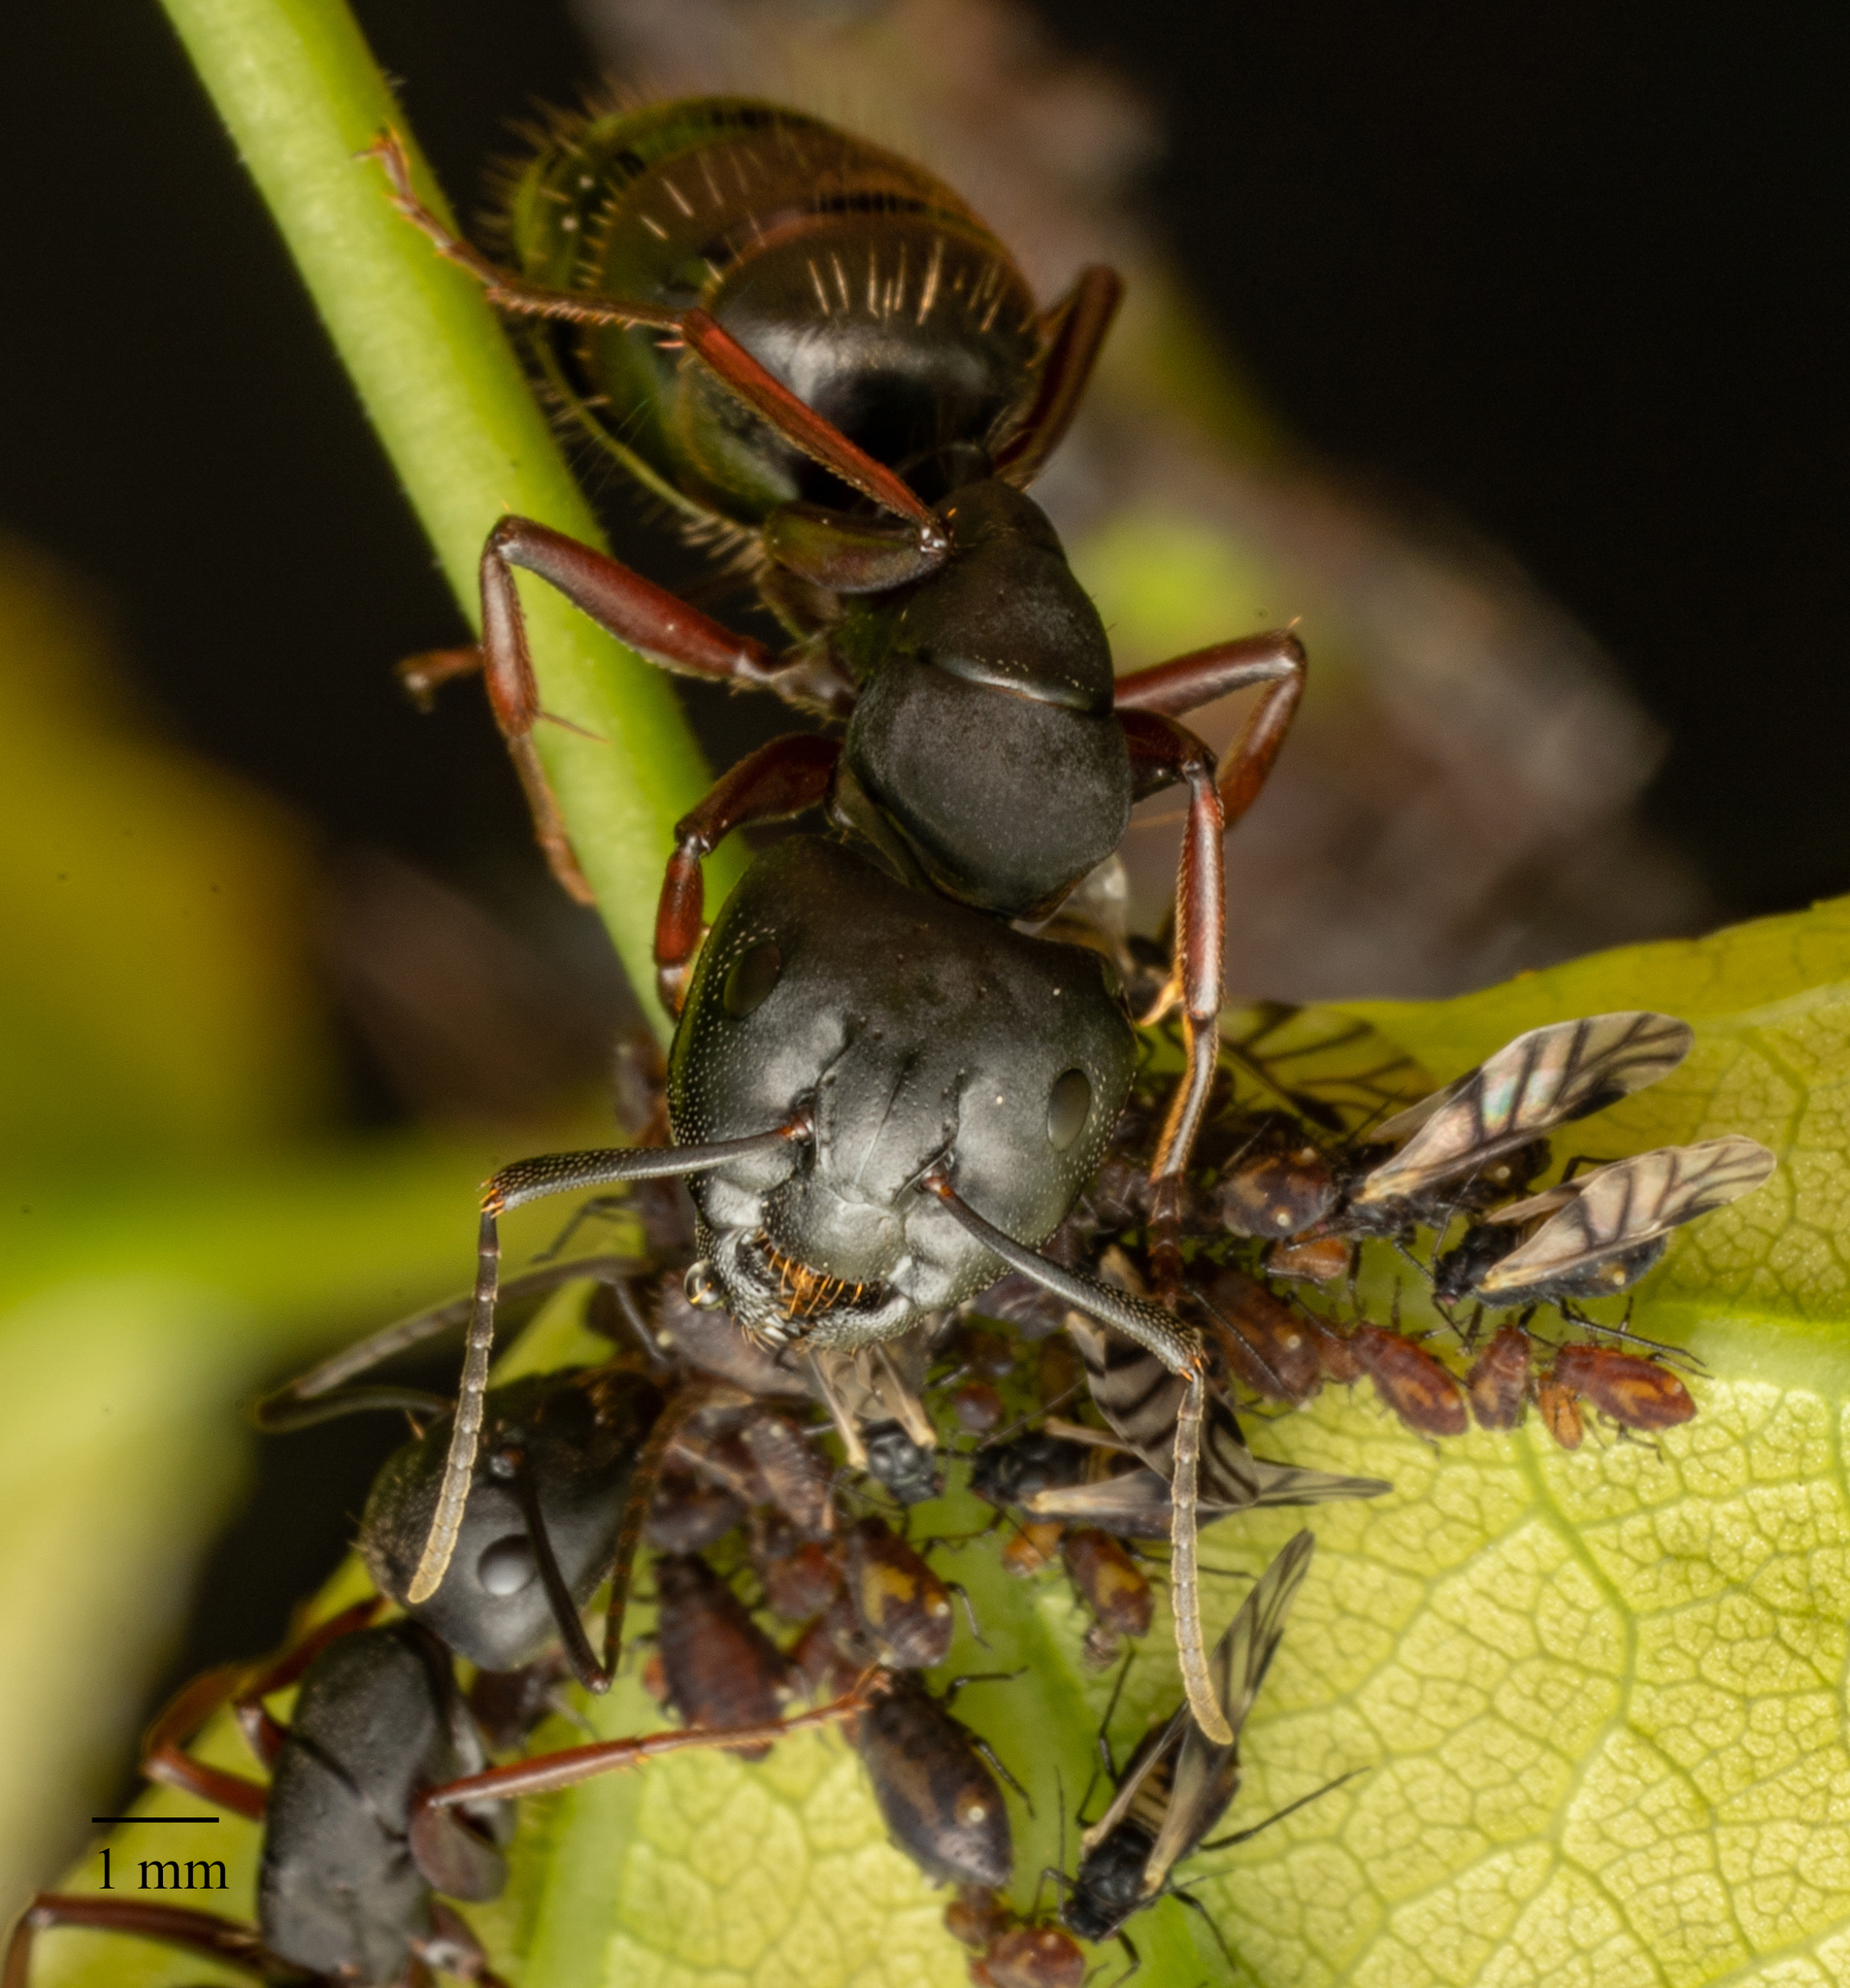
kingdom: Animalia
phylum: Arthropoda
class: Insecta
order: Hemiptera
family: Aphididae
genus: Chaitophorus
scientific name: Chaitophorus populicola
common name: Smokywinged poplar aphid
